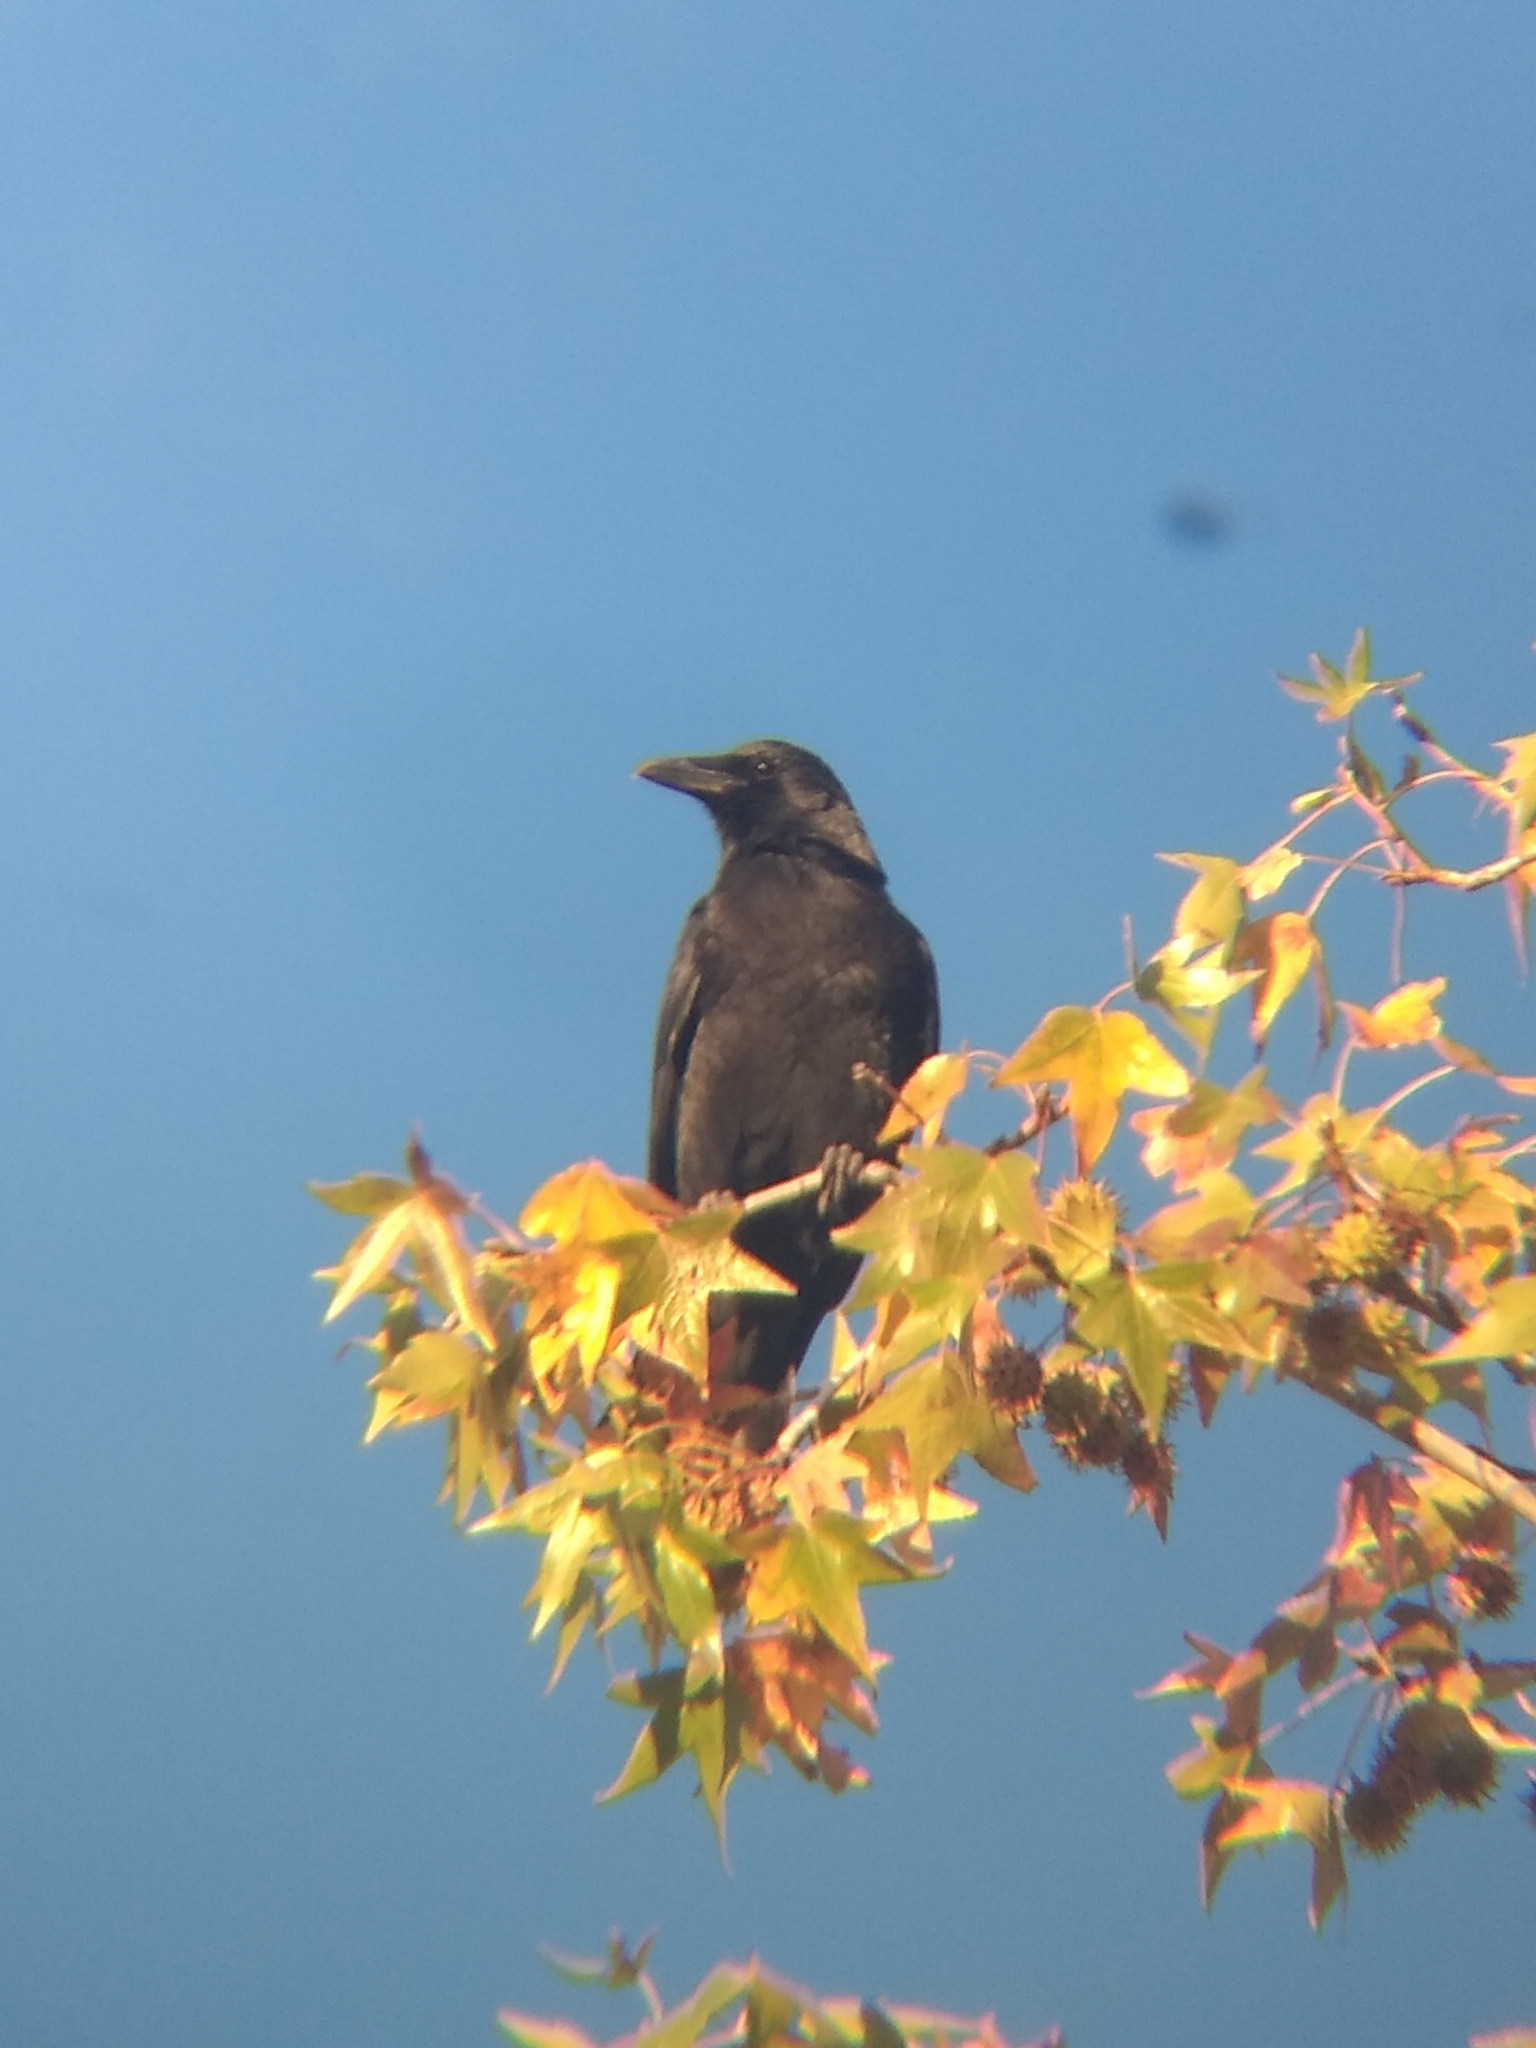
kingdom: Animalia
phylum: Chordata
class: Aves
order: Passeriformes
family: Corvidae
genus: Corvus
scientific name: Corvus brachyrhynchos
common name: American crow
